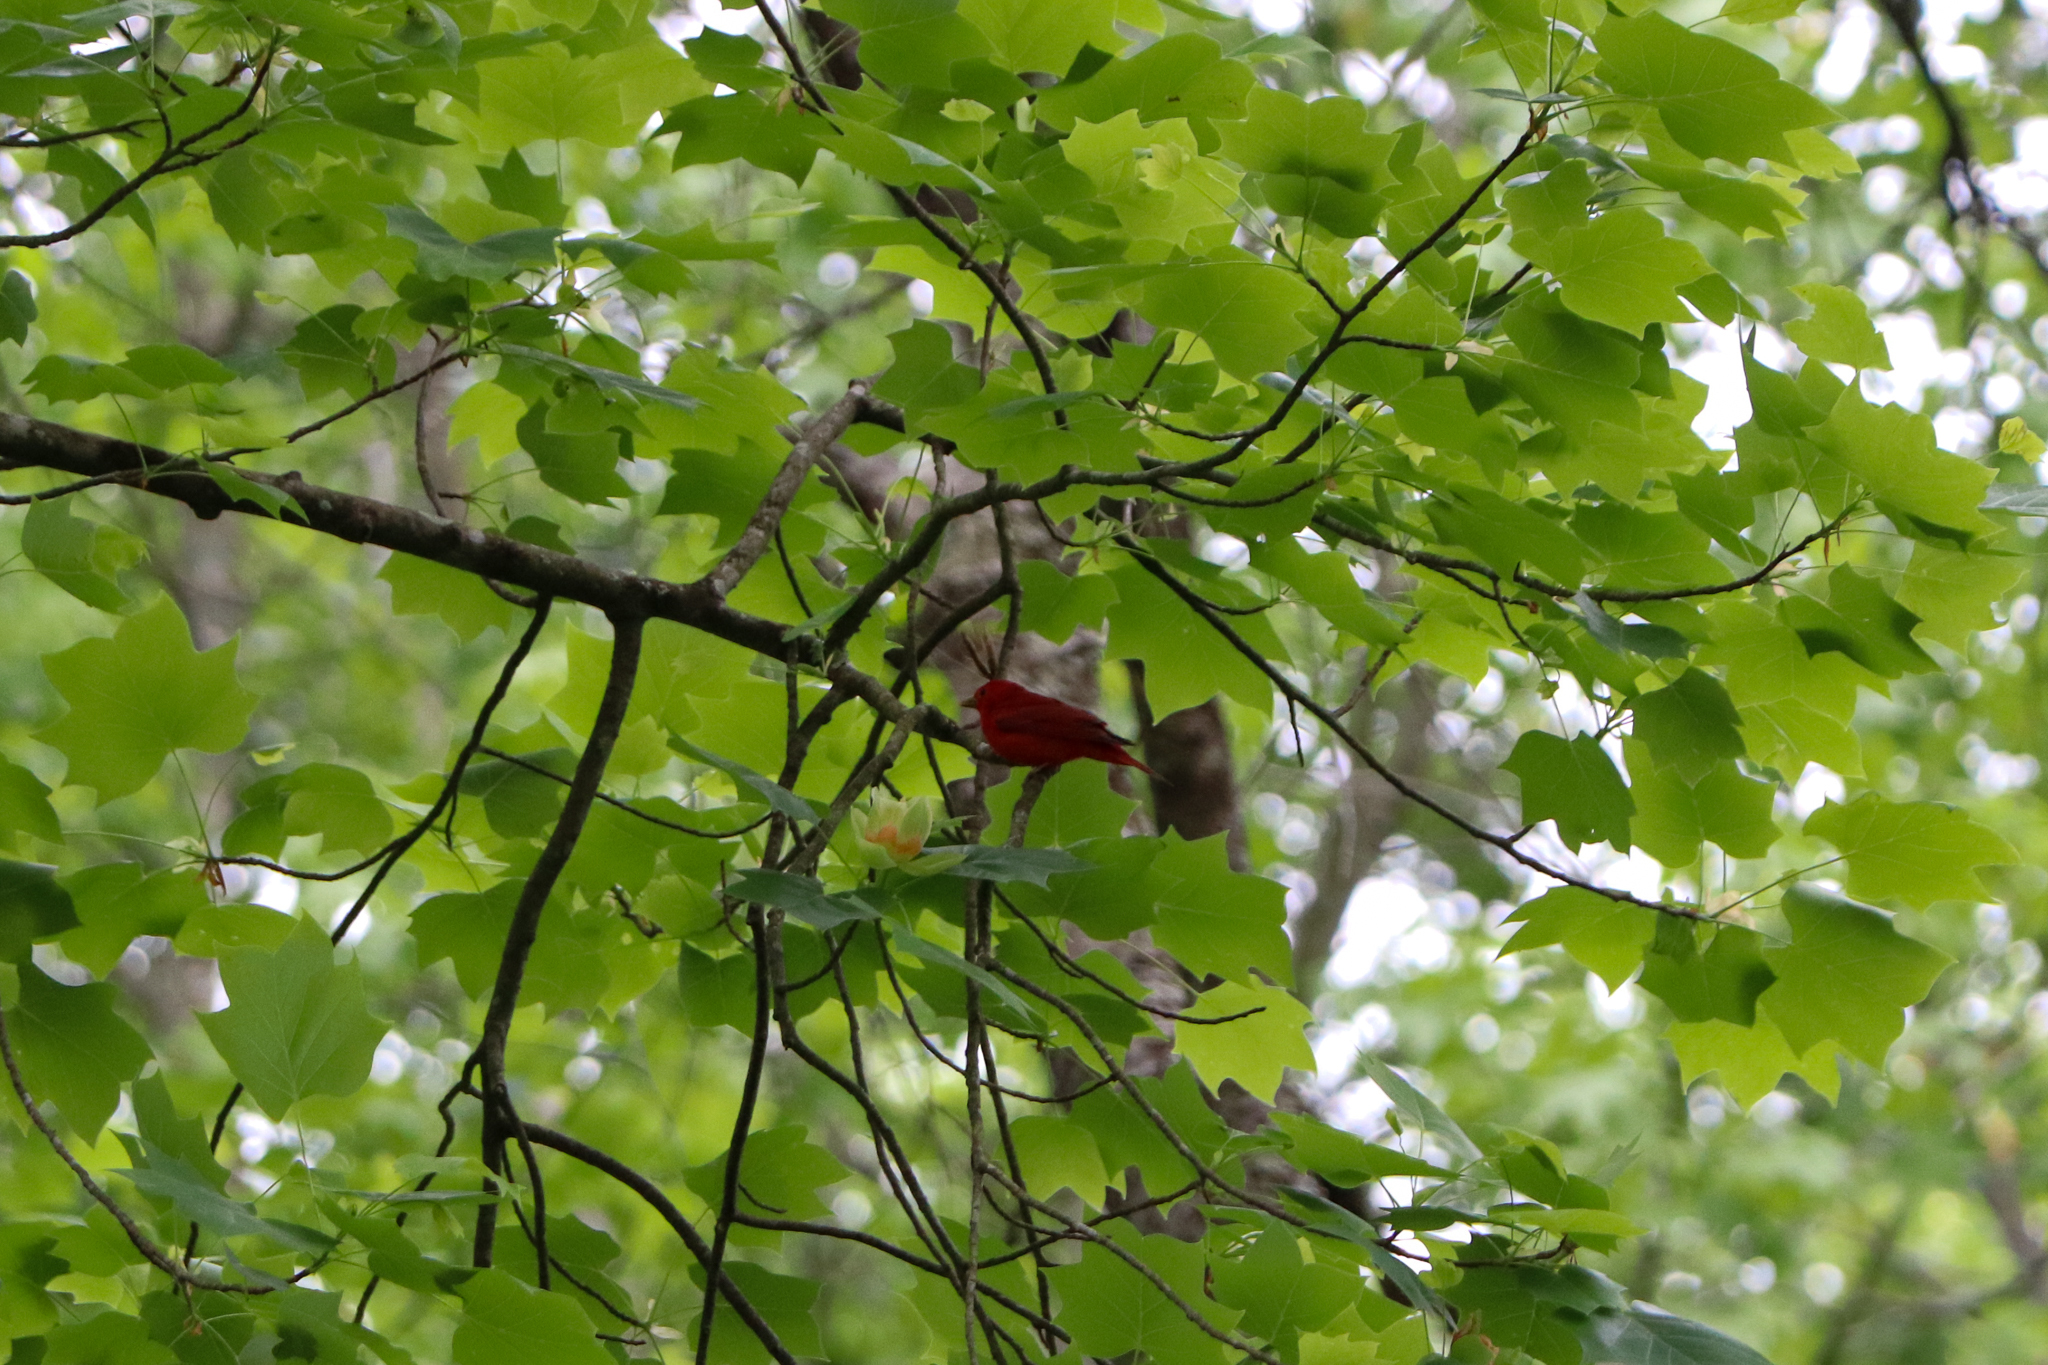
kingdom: Animalia
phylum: Chordata
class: Aves
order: Passeriformes
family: Cardinalidae
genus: Piranga
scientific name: Piranga rubra
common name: Summer tanager
